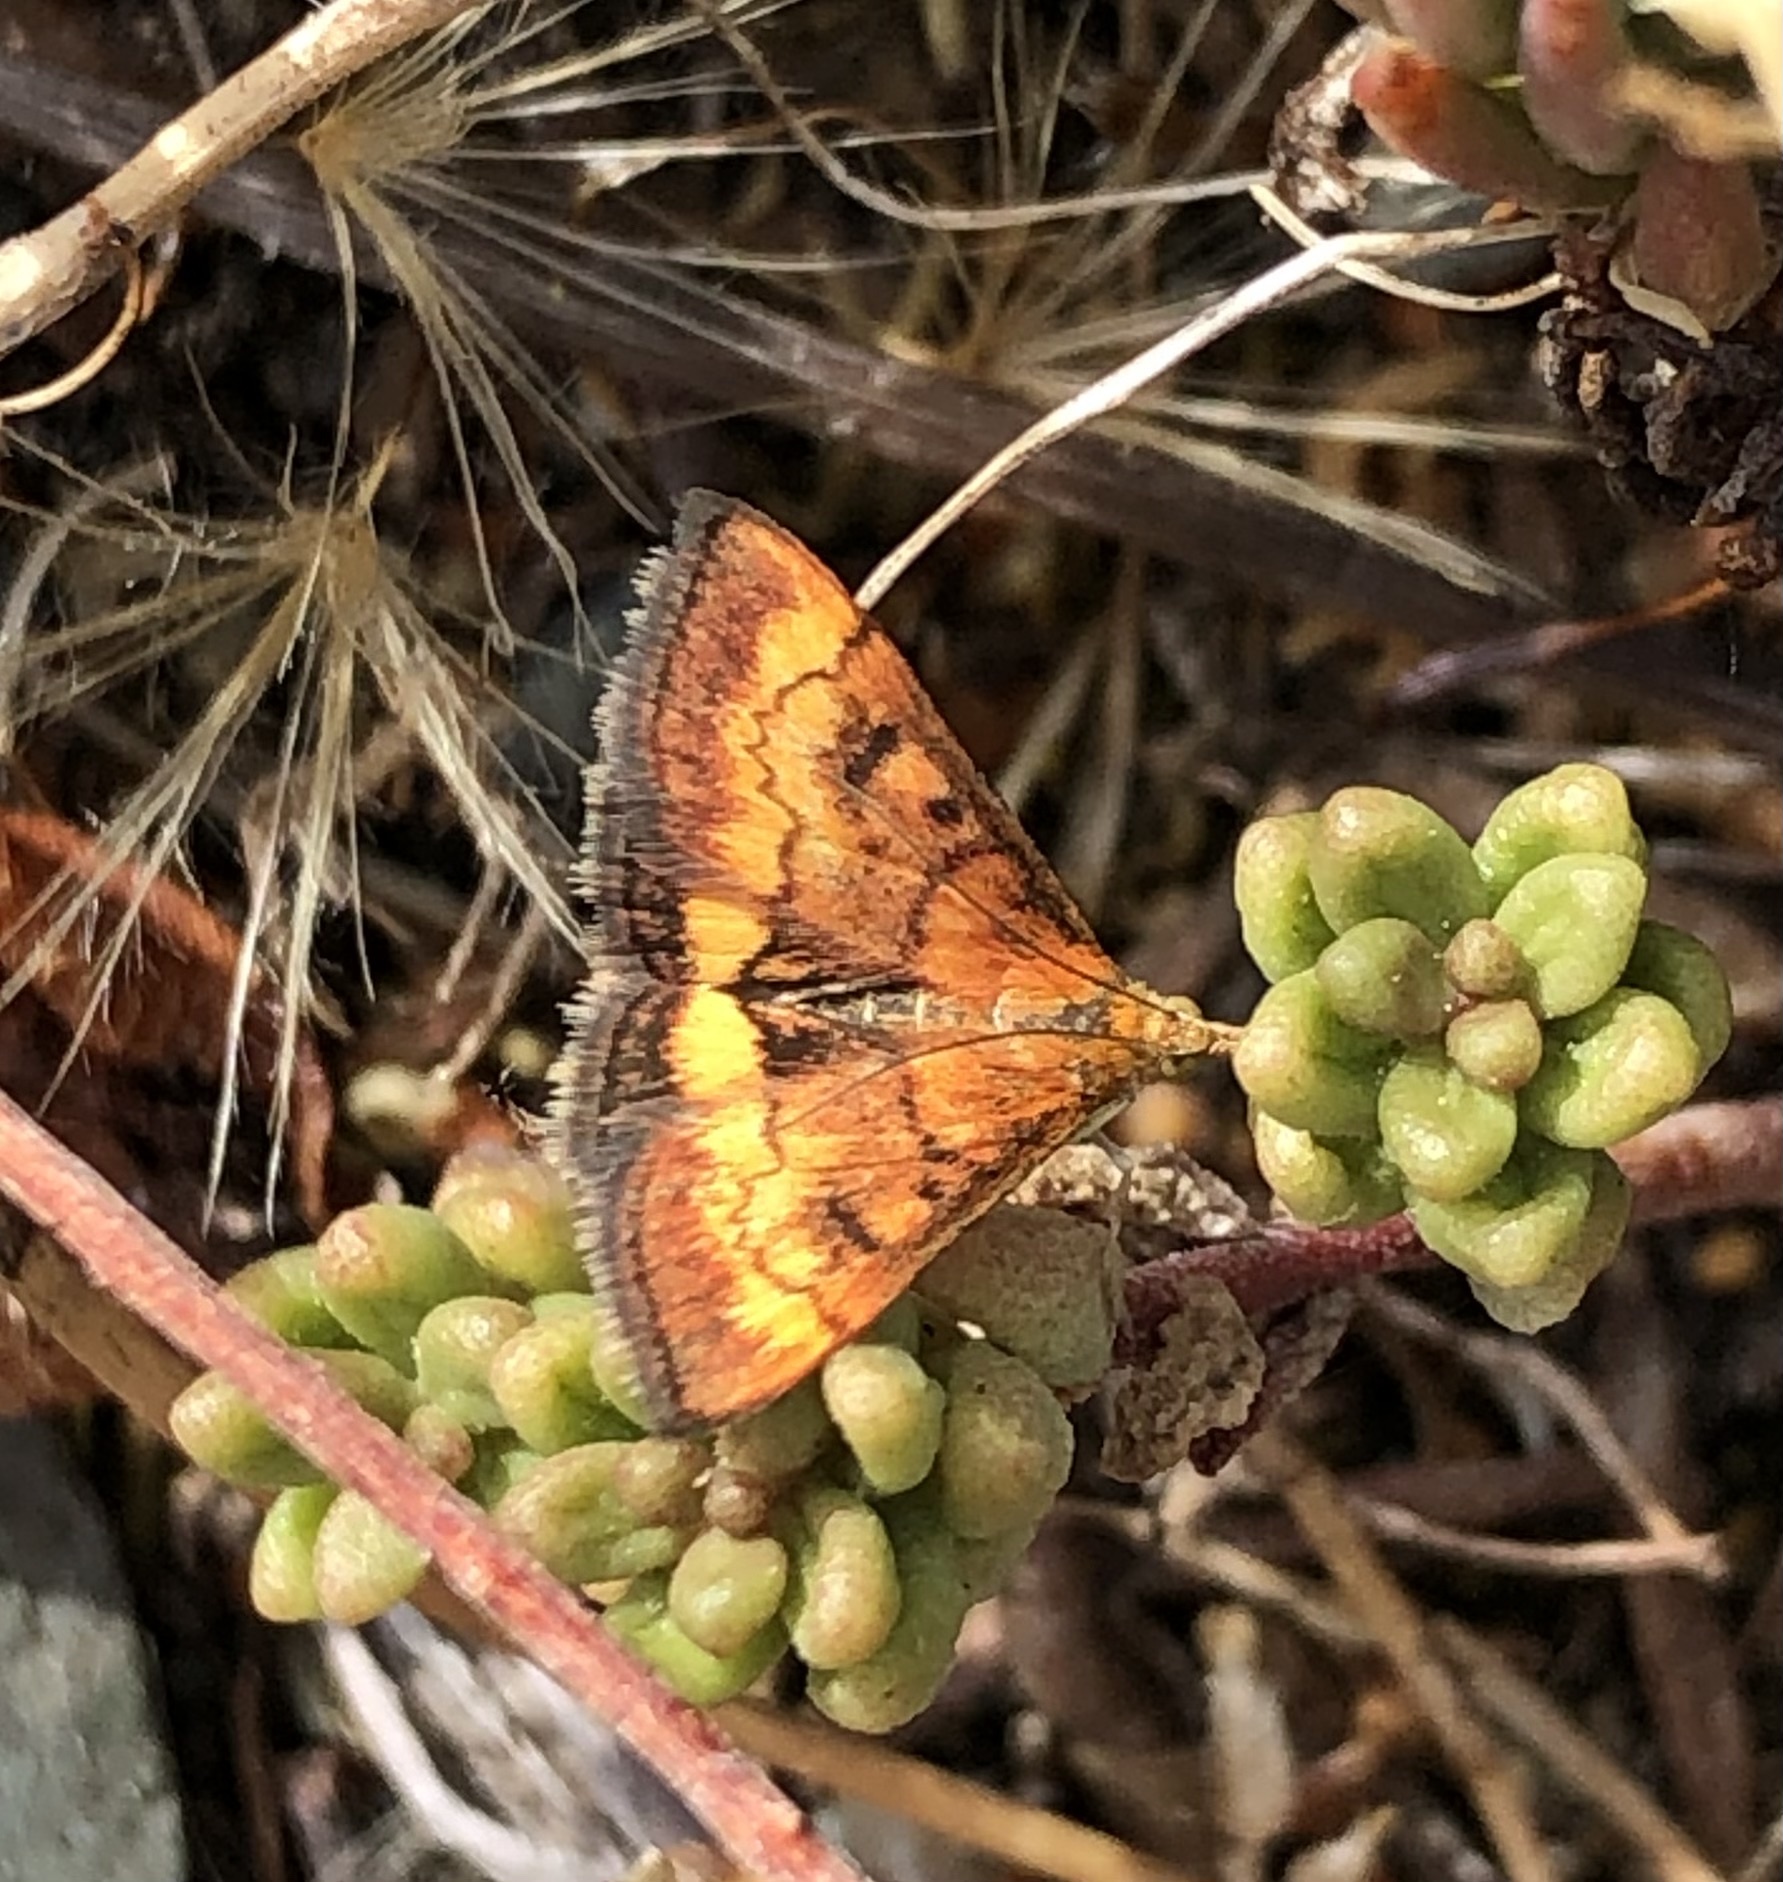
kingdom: Animalia
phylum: Arthropoda
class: Insecta
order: Lepidoptera
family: Crambidae
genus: Pyrausta
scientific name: Pyrausta californicalis
